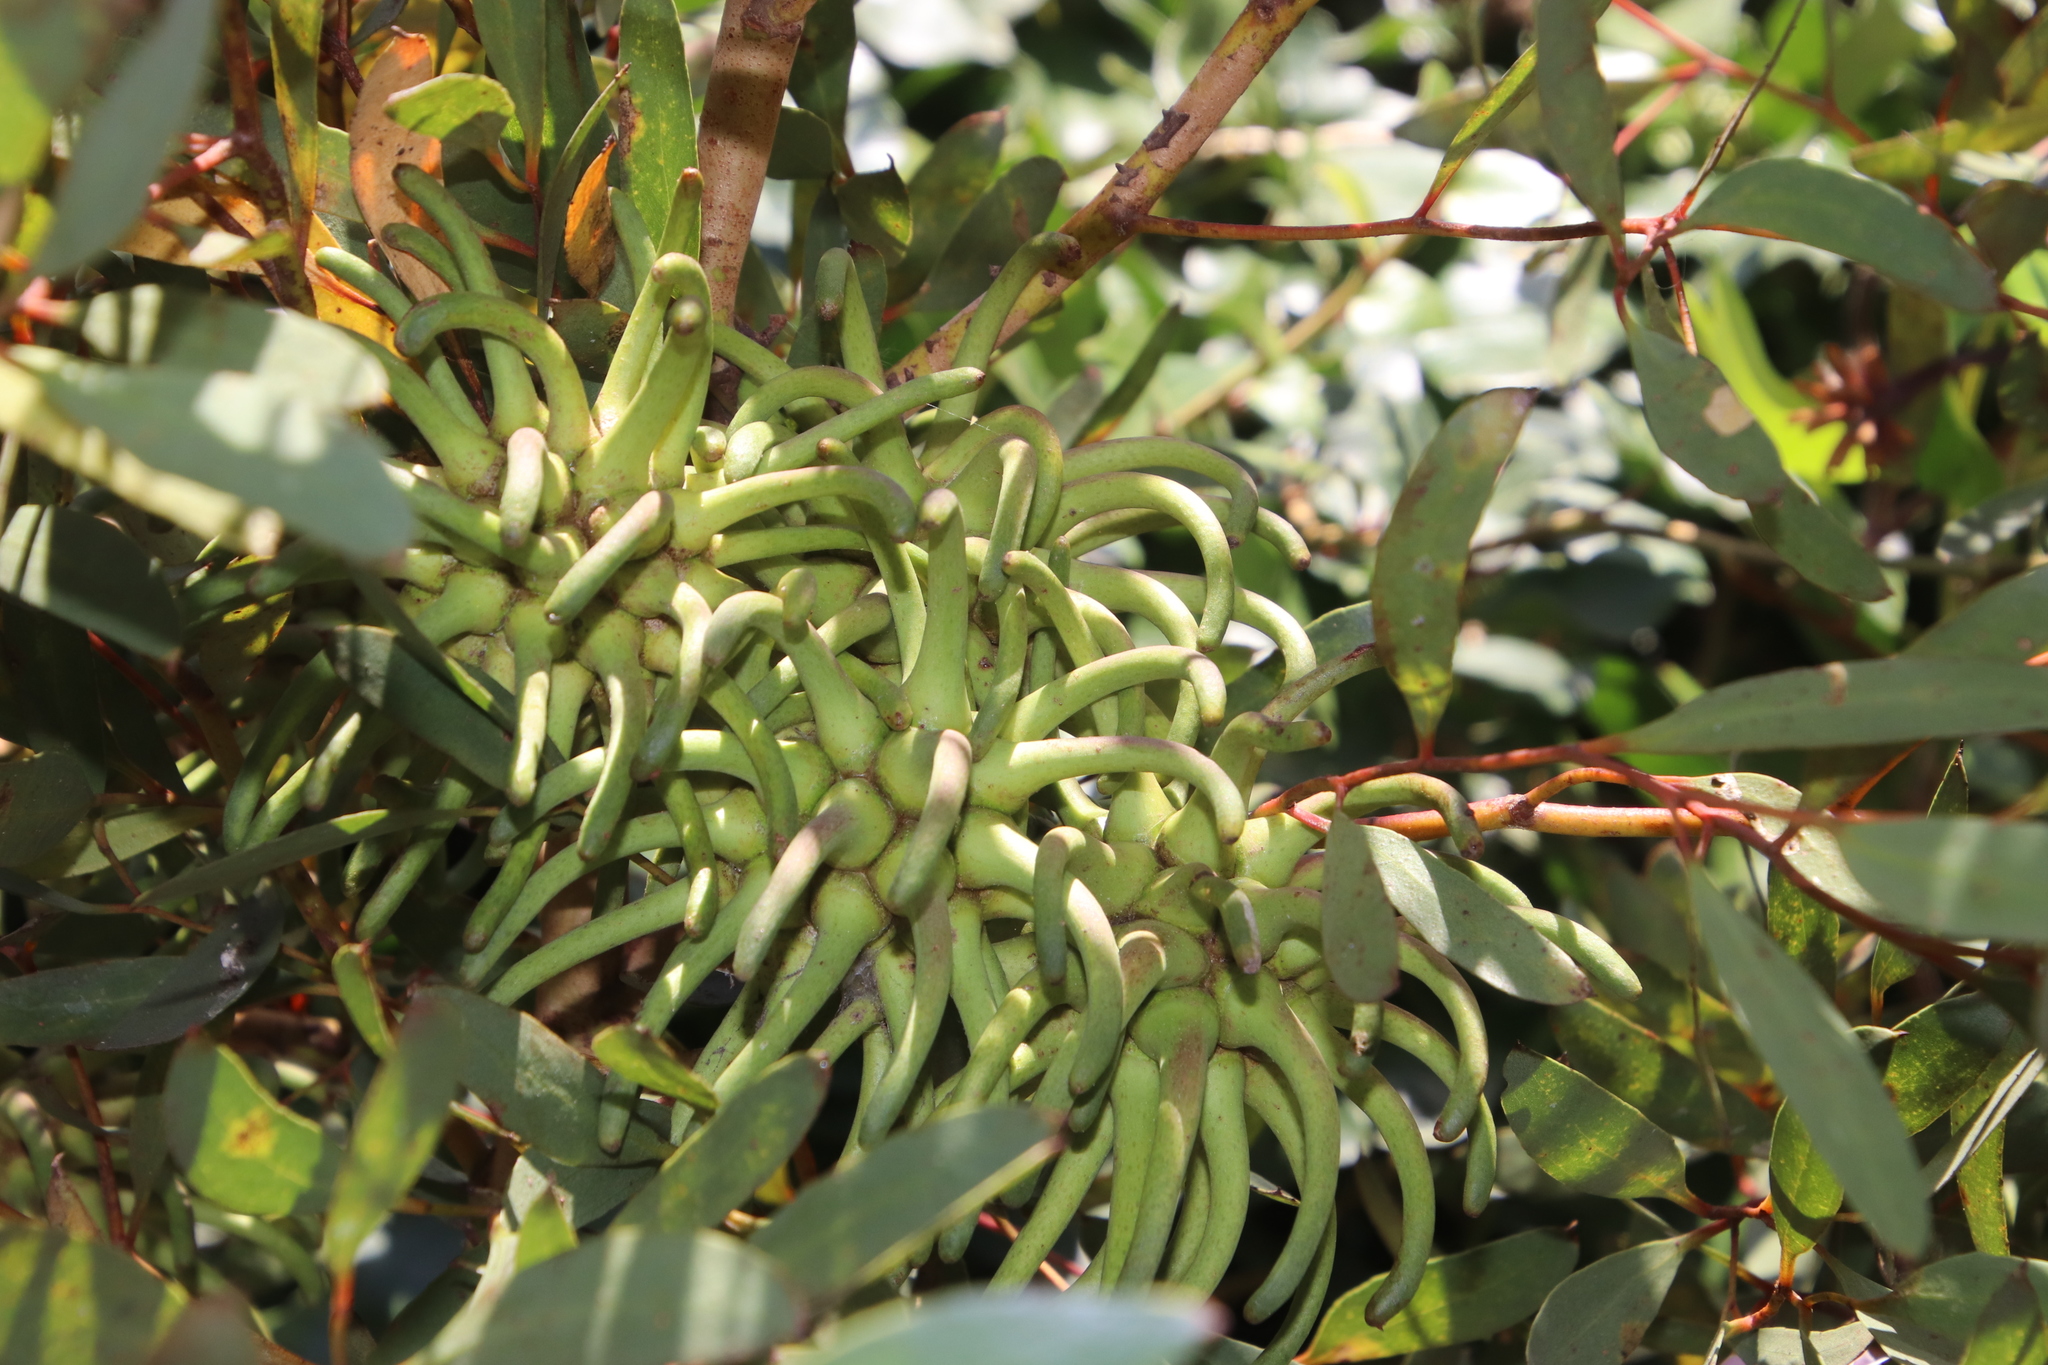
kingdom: Plantae
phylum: Tracheophyta
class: Magnoliopsida
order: Myrtales
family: Myrtaceae
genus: Eucalyptus
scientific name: Eucalyptus conferruminata
